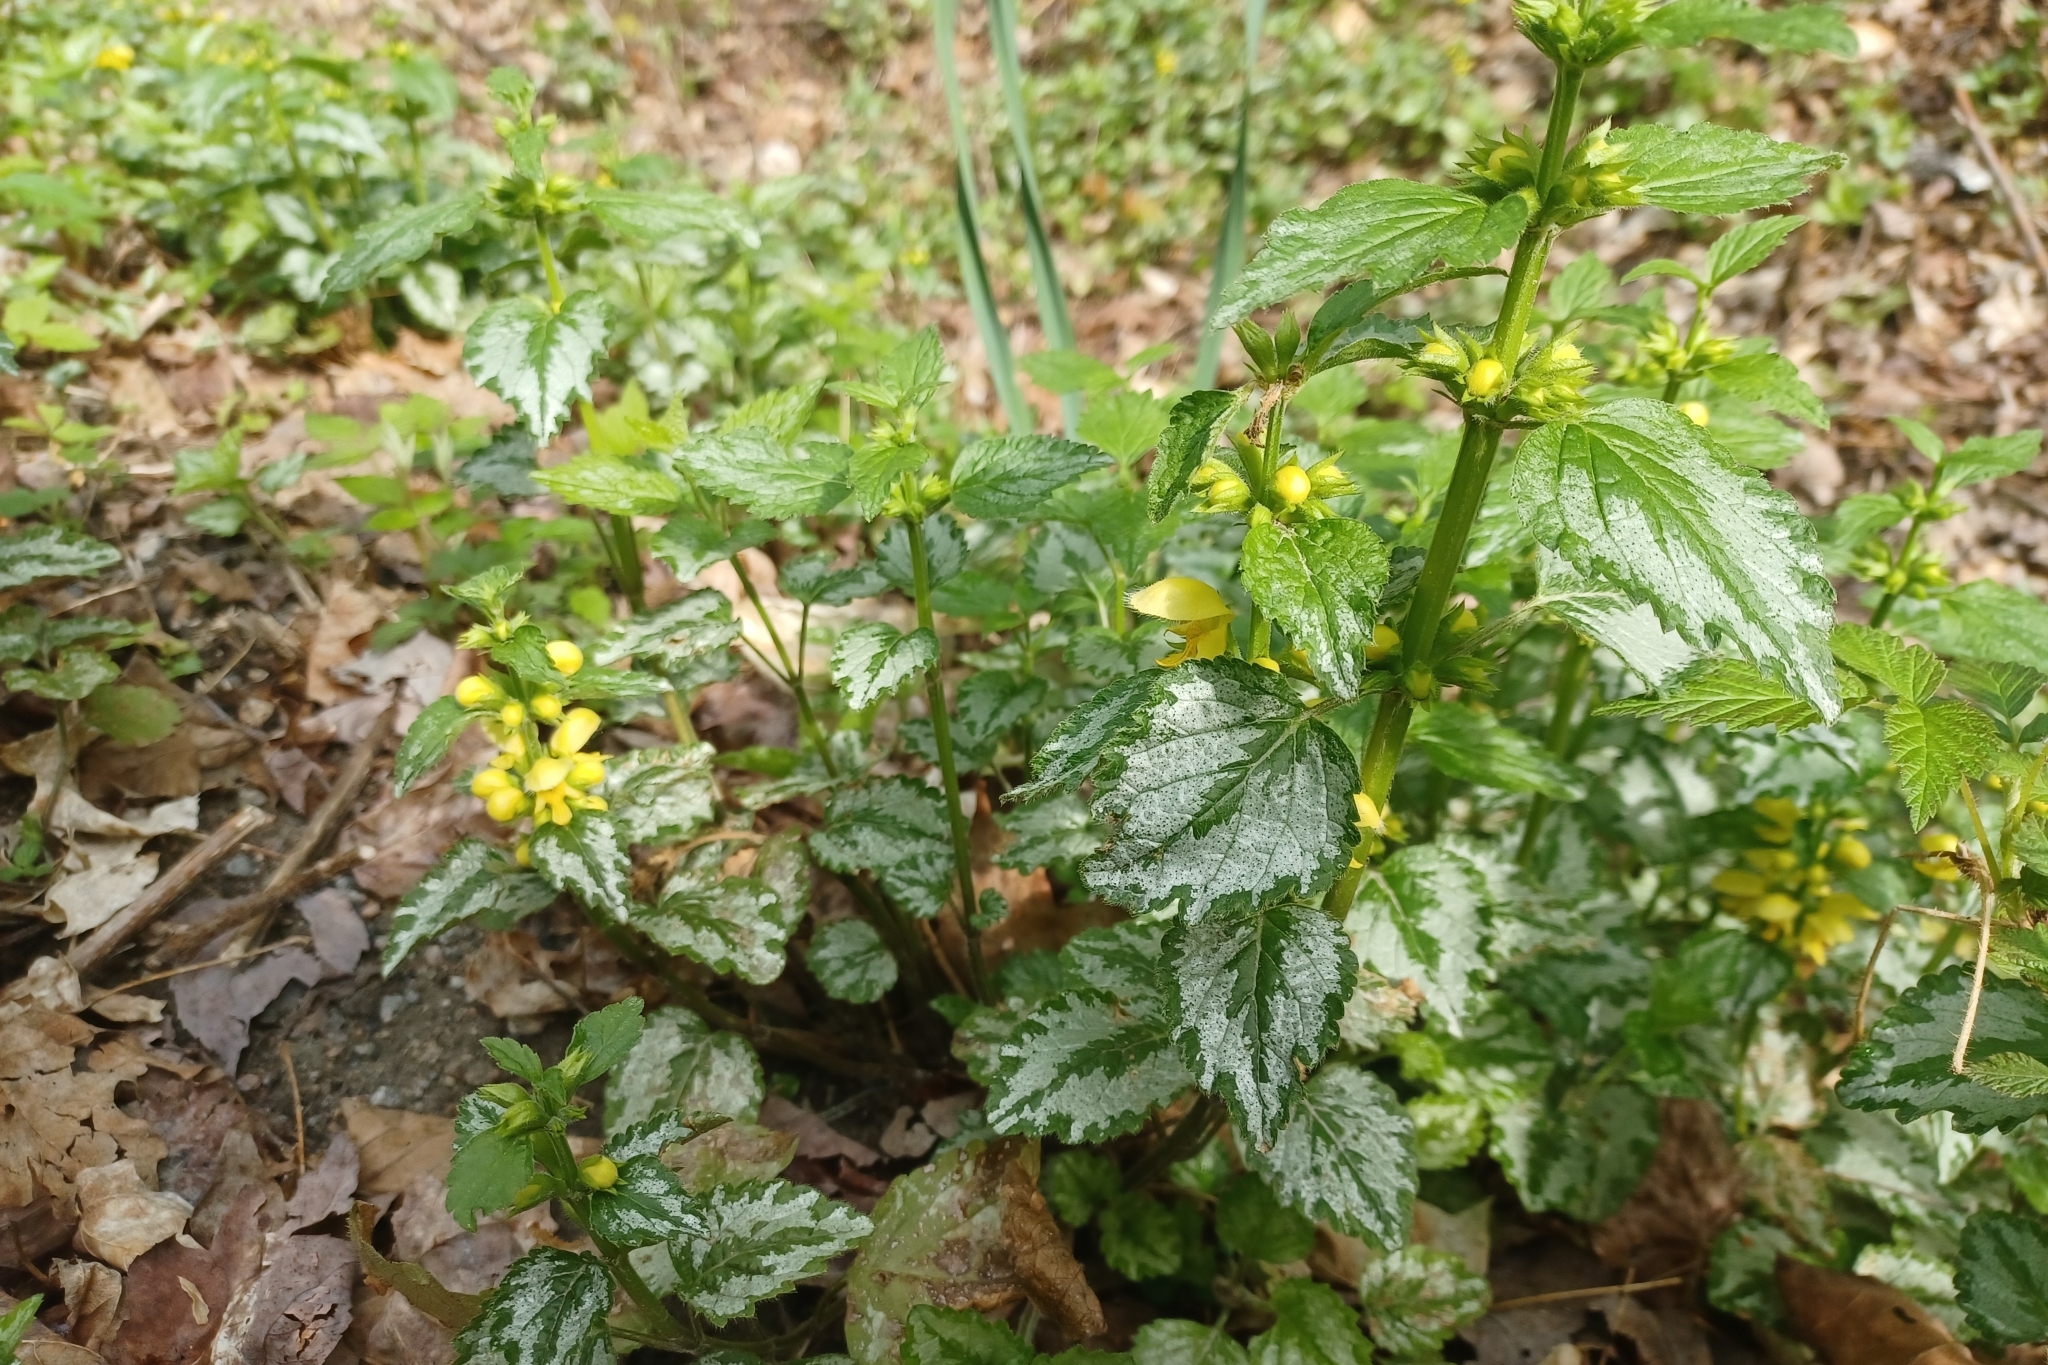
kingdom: Plantae
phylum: Tracheophyta
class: Magnoliopsida
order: Lamiales
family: Lamiaceae
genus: Lamium
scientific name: Lamium galeobdolon
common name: Yellow archangel
